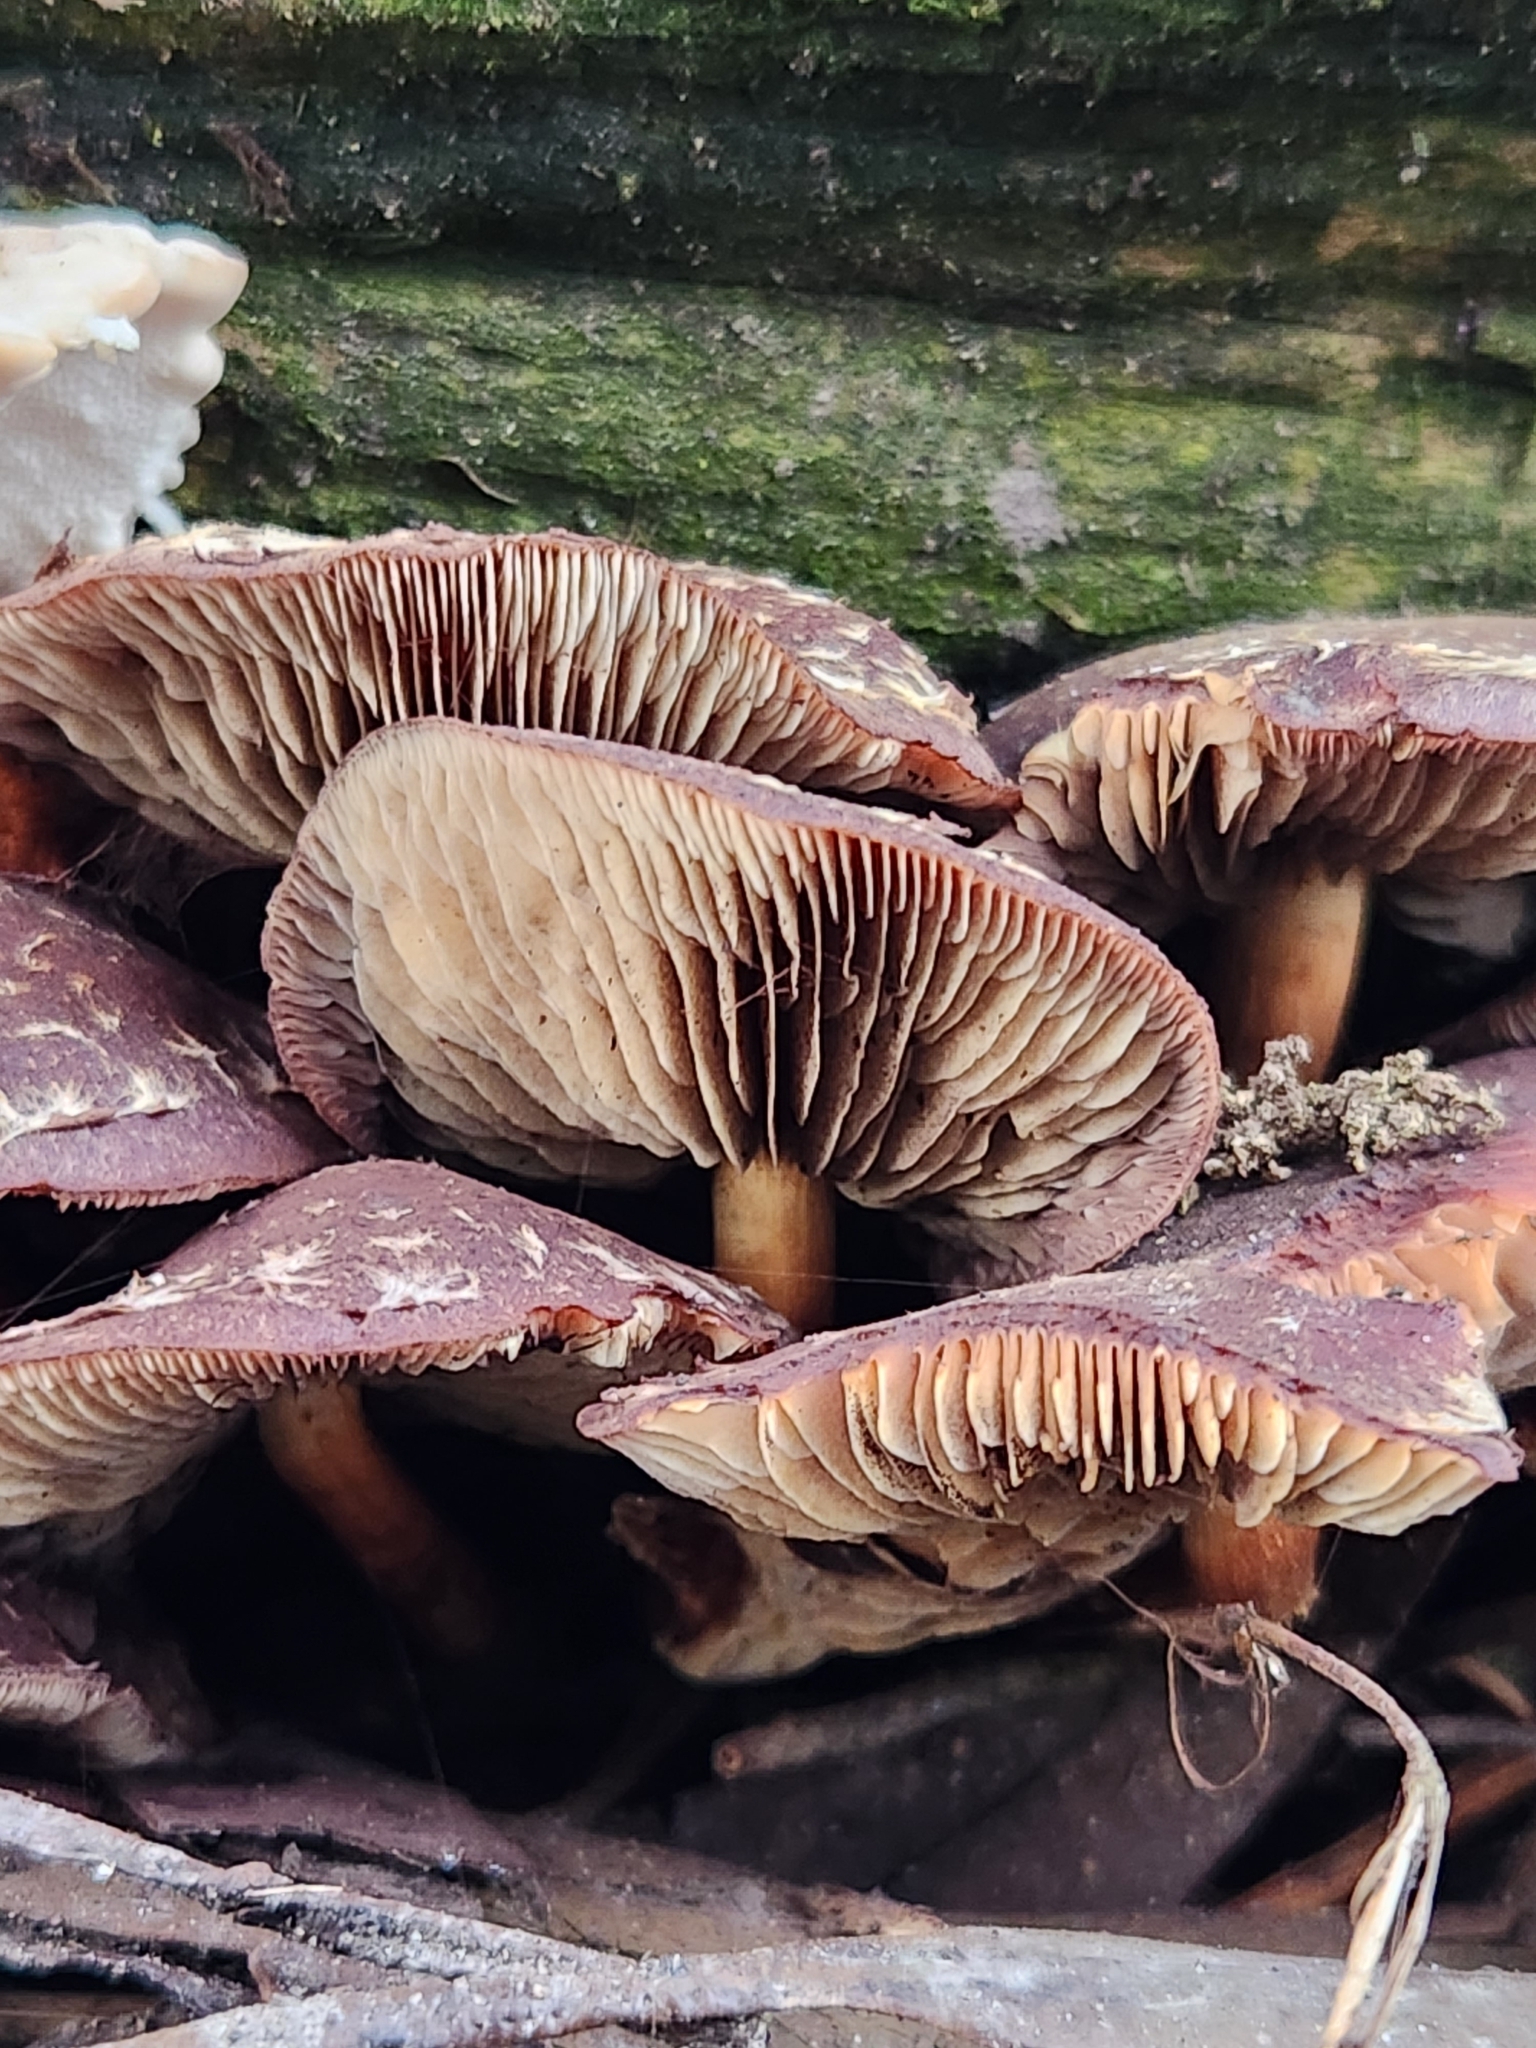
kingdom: Fungi
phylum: Basidiomycota
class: Agaricomycetes
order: Agaricales
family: Strophariaceae
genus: Hypholoma
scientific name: Hypholoma brunneum
